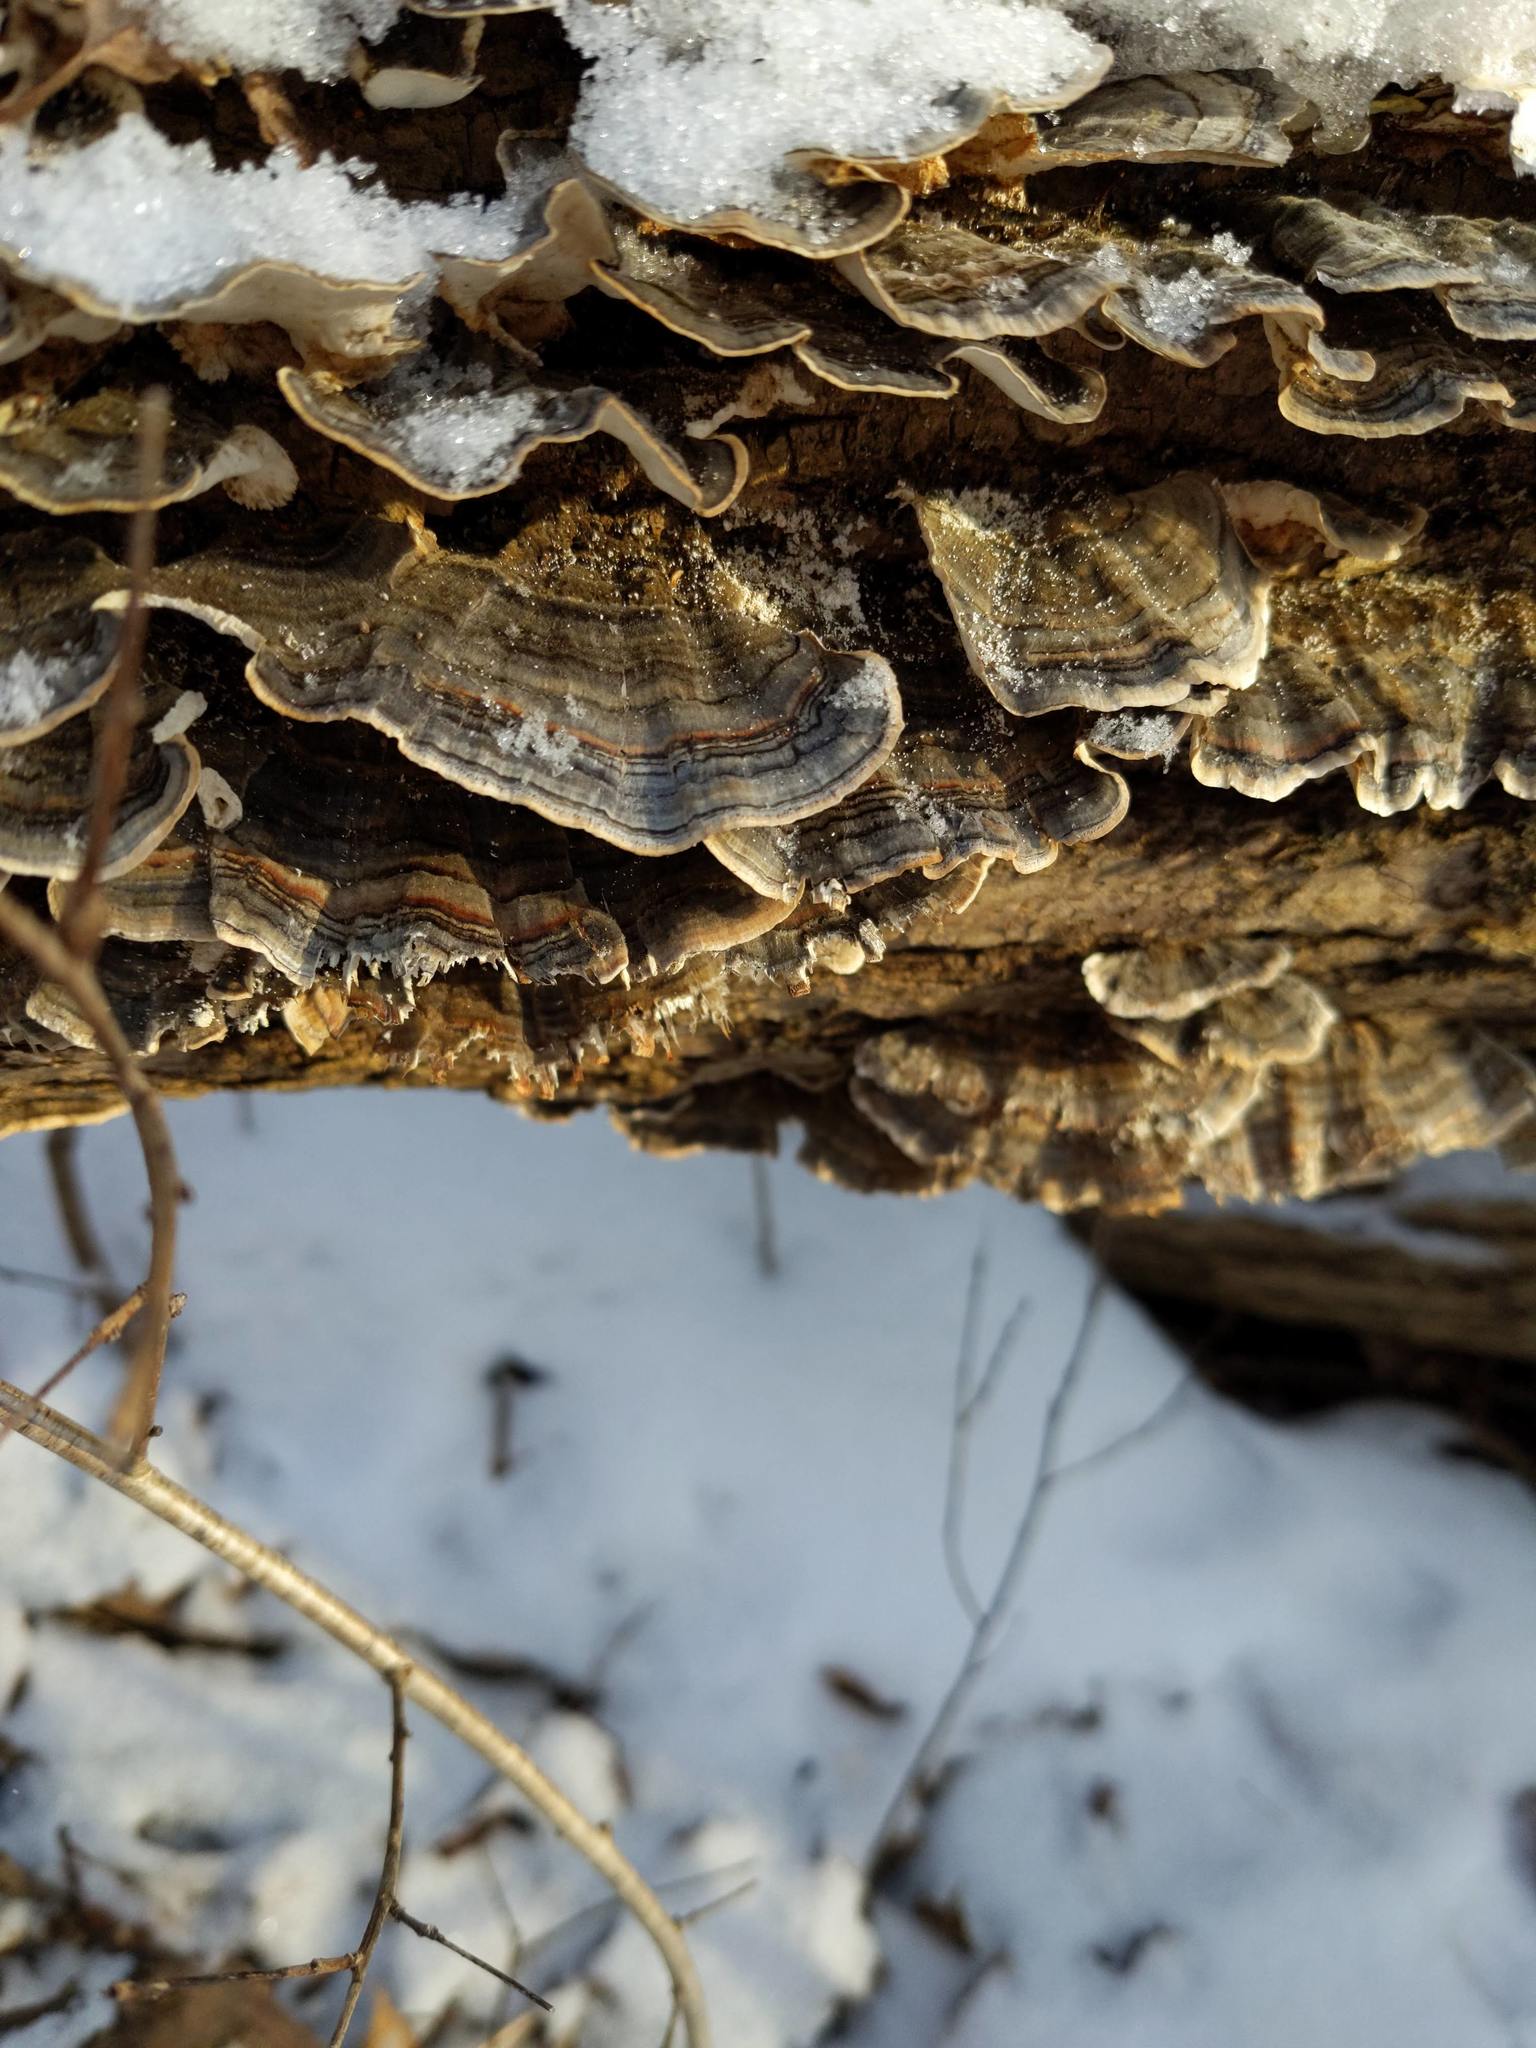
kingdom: Fungi
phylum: Basidiomycota
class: Agaricomycetes
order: Polyporales
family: Polyporaceae
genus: Trametes
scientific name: Trametes versicolor
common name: Turkeytail
